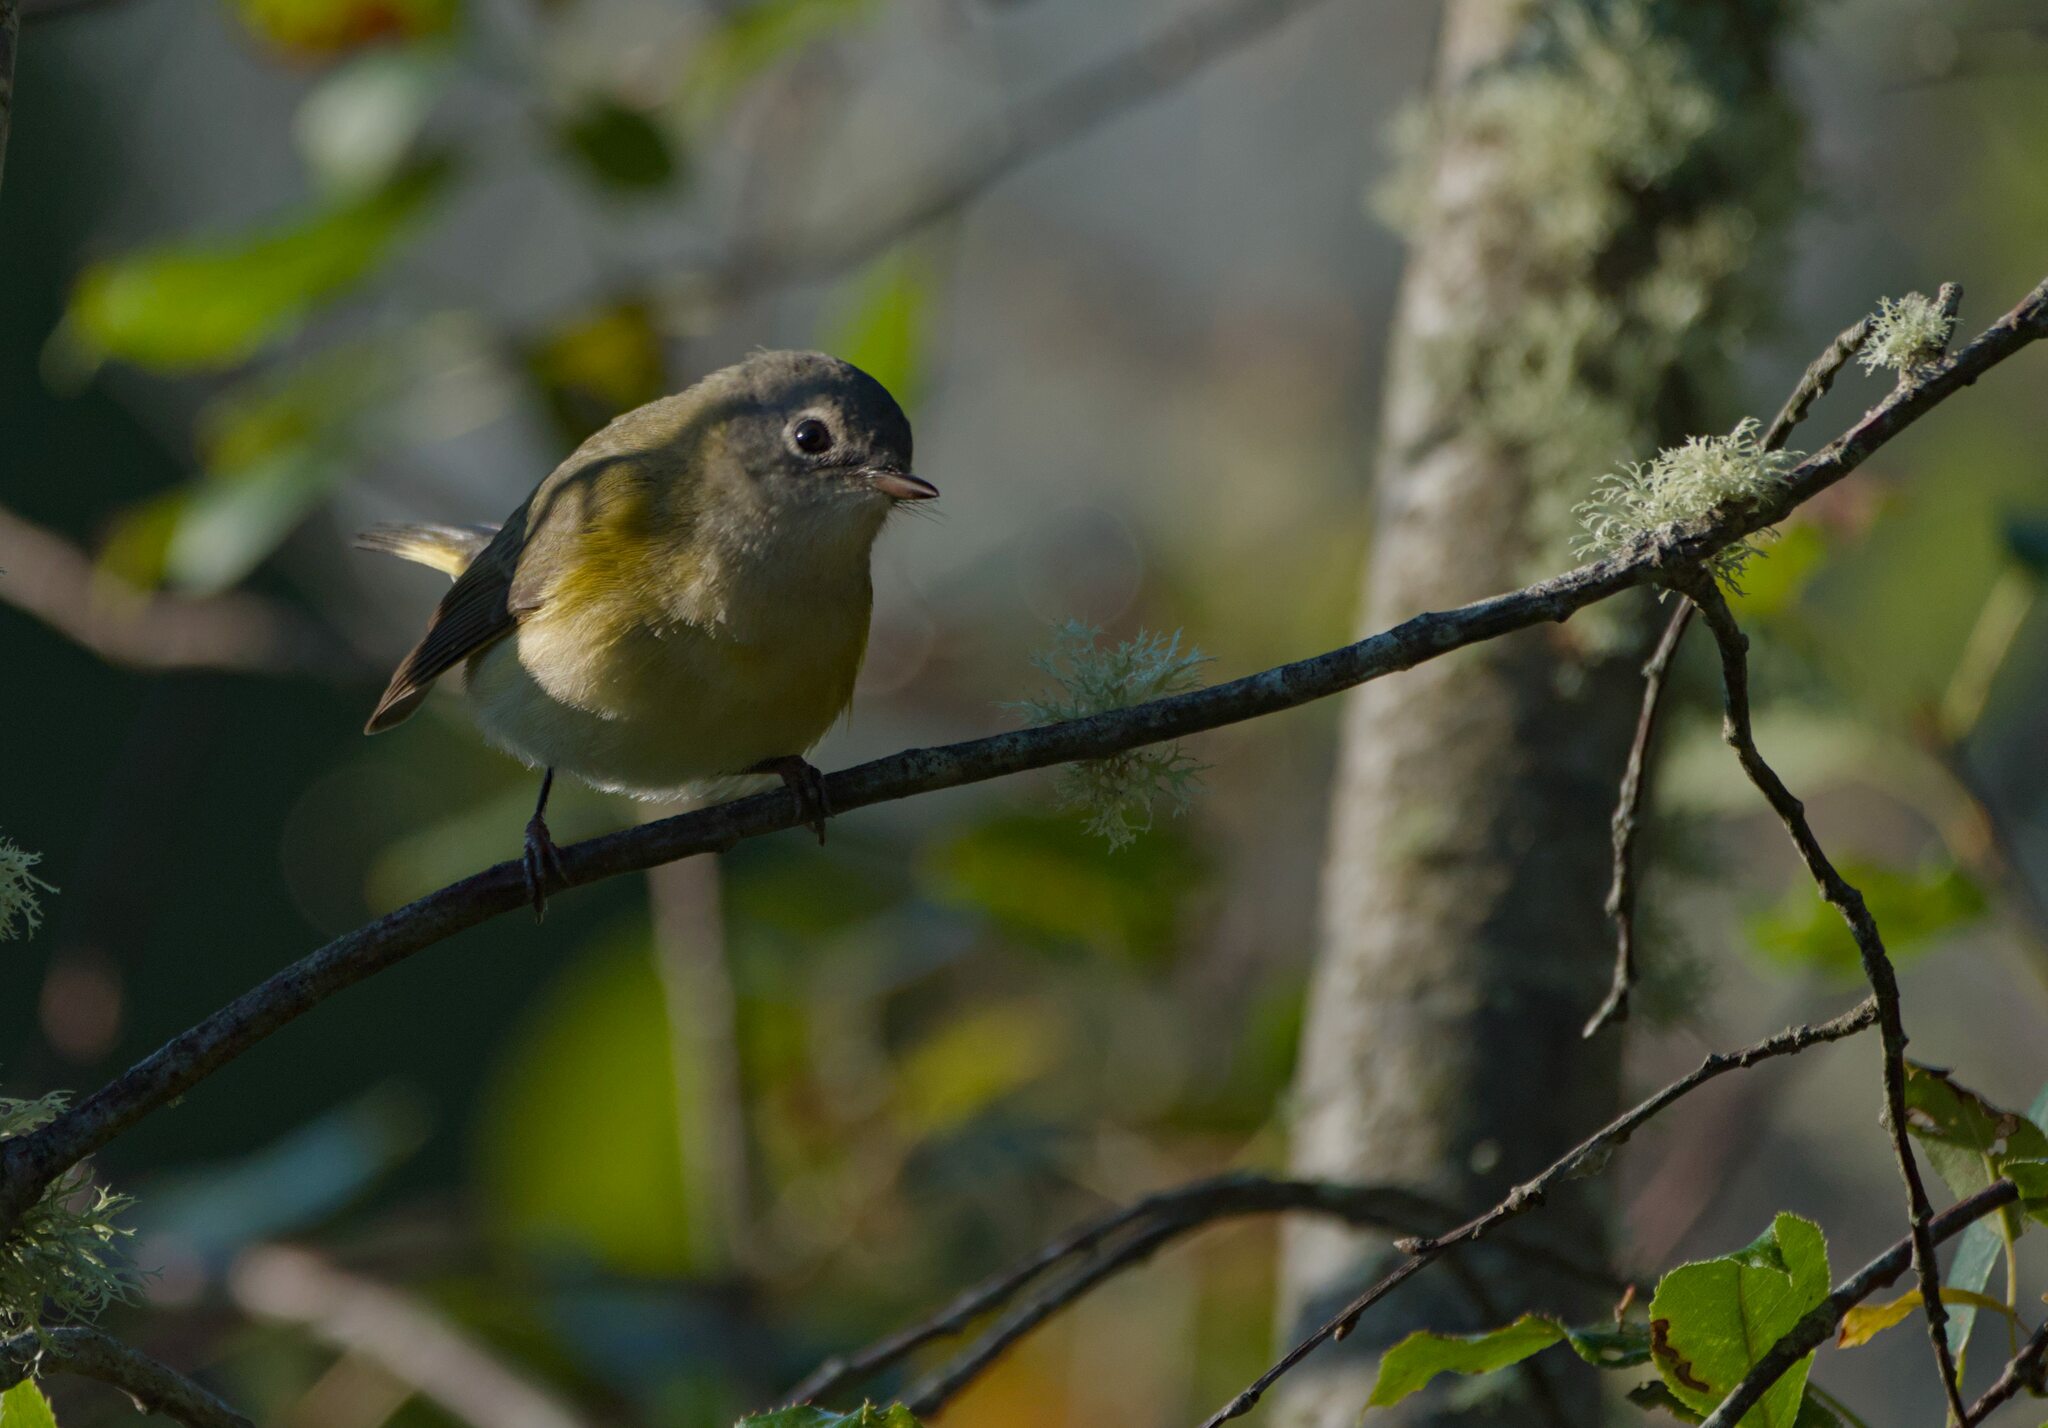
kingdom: Animalia
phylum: Chordata
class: Aves
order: Passeriformes
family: Parulidae
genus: Setophaga
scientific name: Setophaga ruticilla
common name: American redstart
